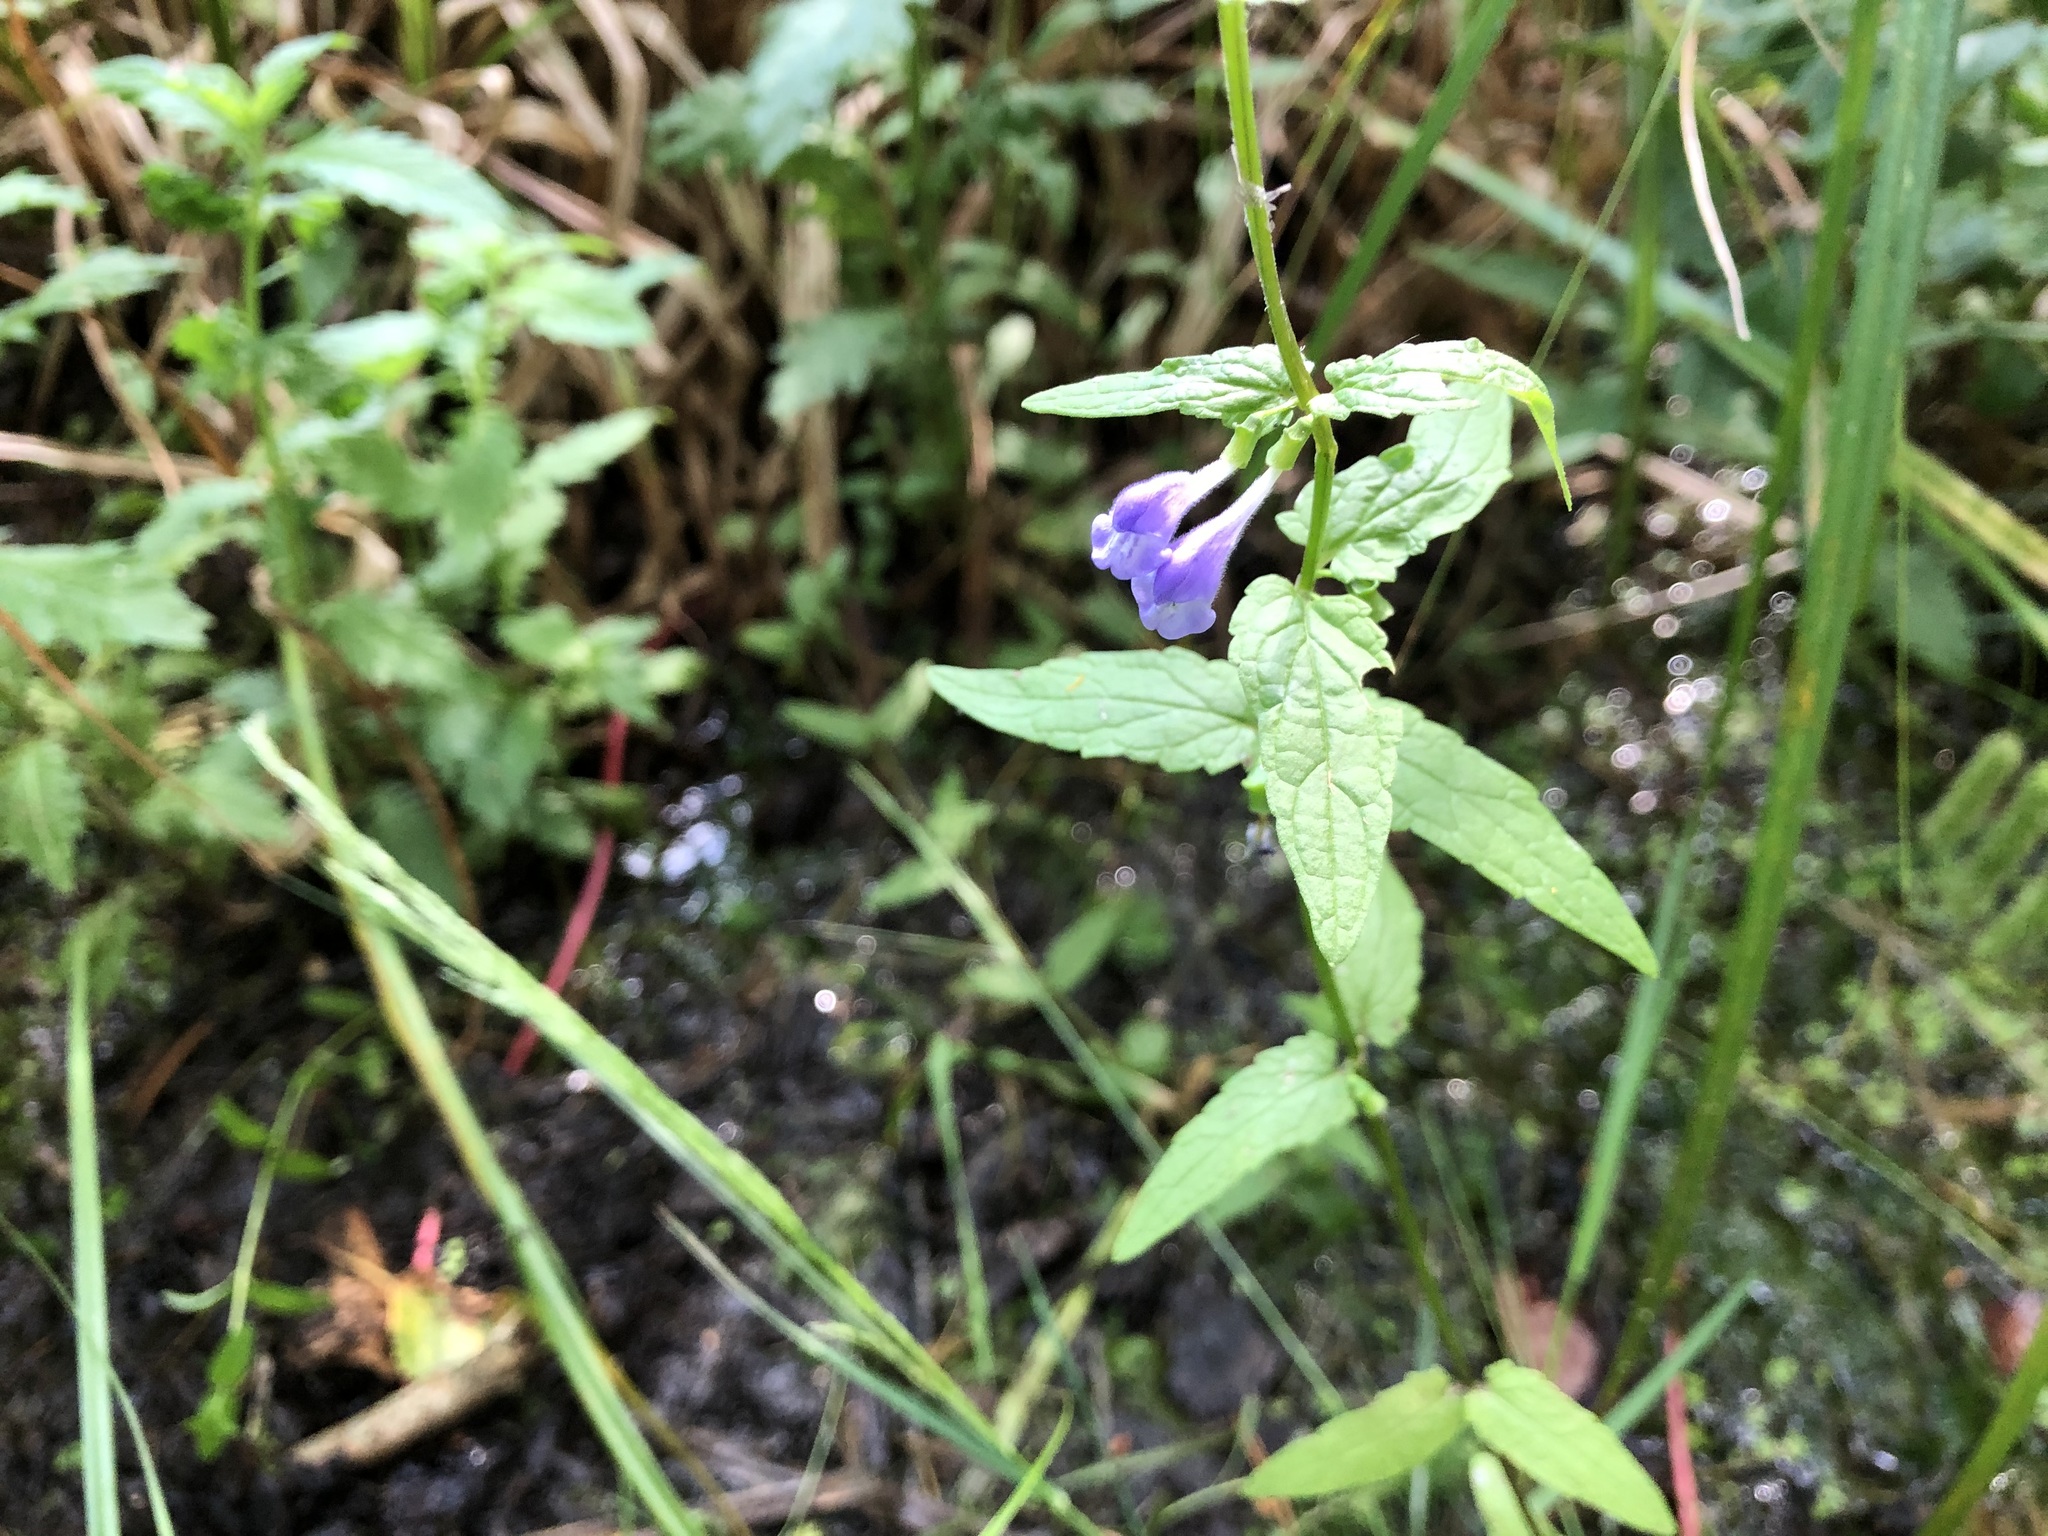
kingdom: Plantae
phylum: Tracheophyta
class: Magnoliopsida
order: Lamiales
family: Lamiaceae
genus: Scutellaria
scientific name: Scutellaria galericulata
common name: Skullcap
